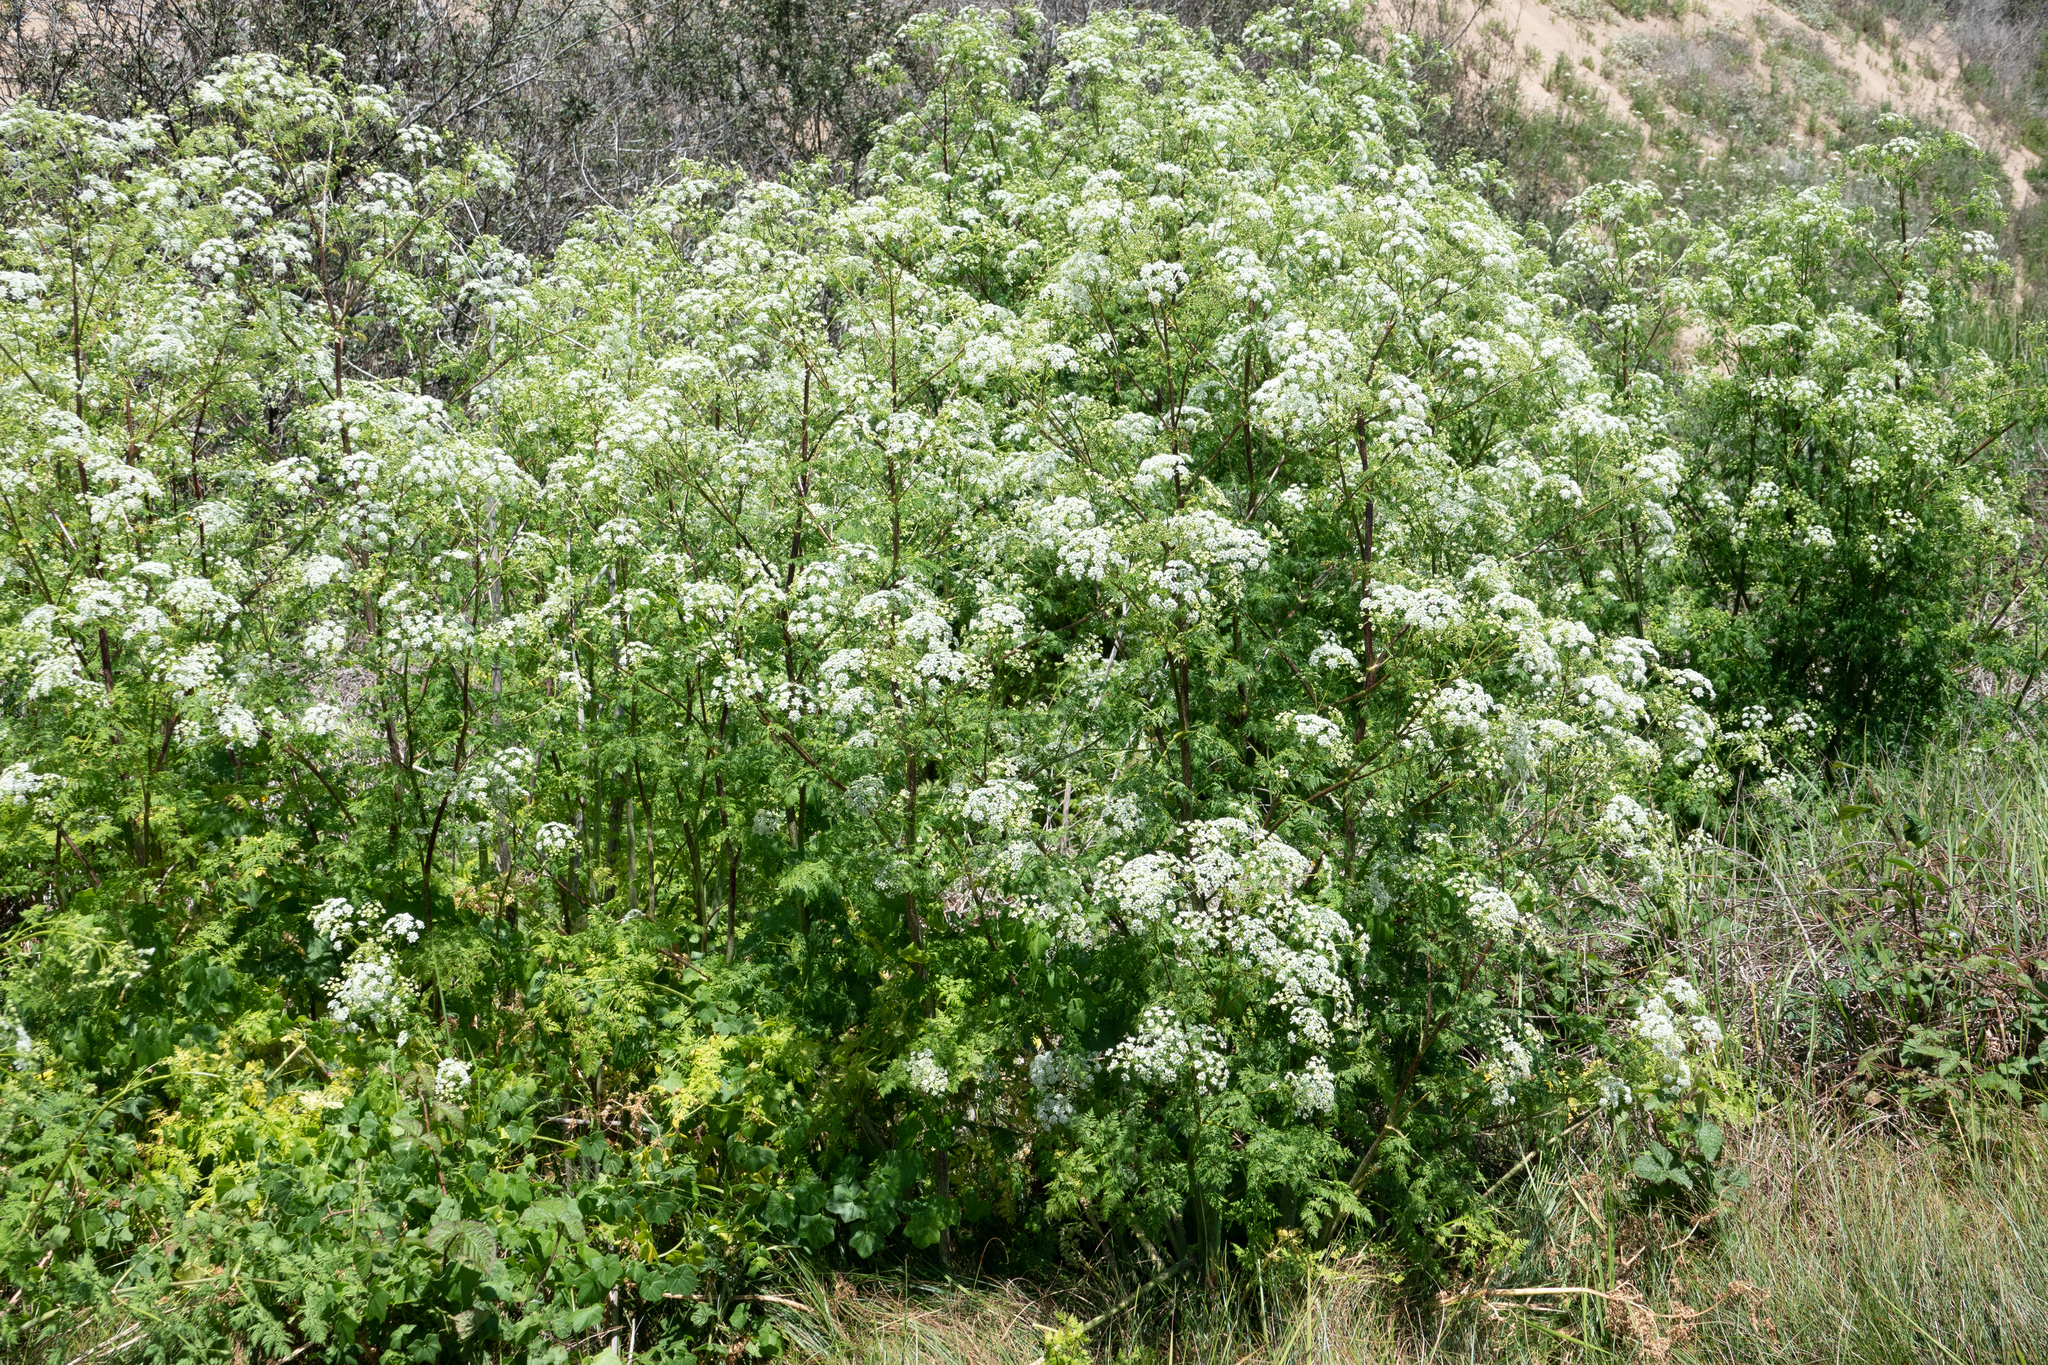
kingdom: Plantae
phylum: Tracheophyta
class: Magnoliopsida
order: Apiales
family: Apiaceae
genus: Conium
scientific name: Conium maculatum
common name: Hemlock
